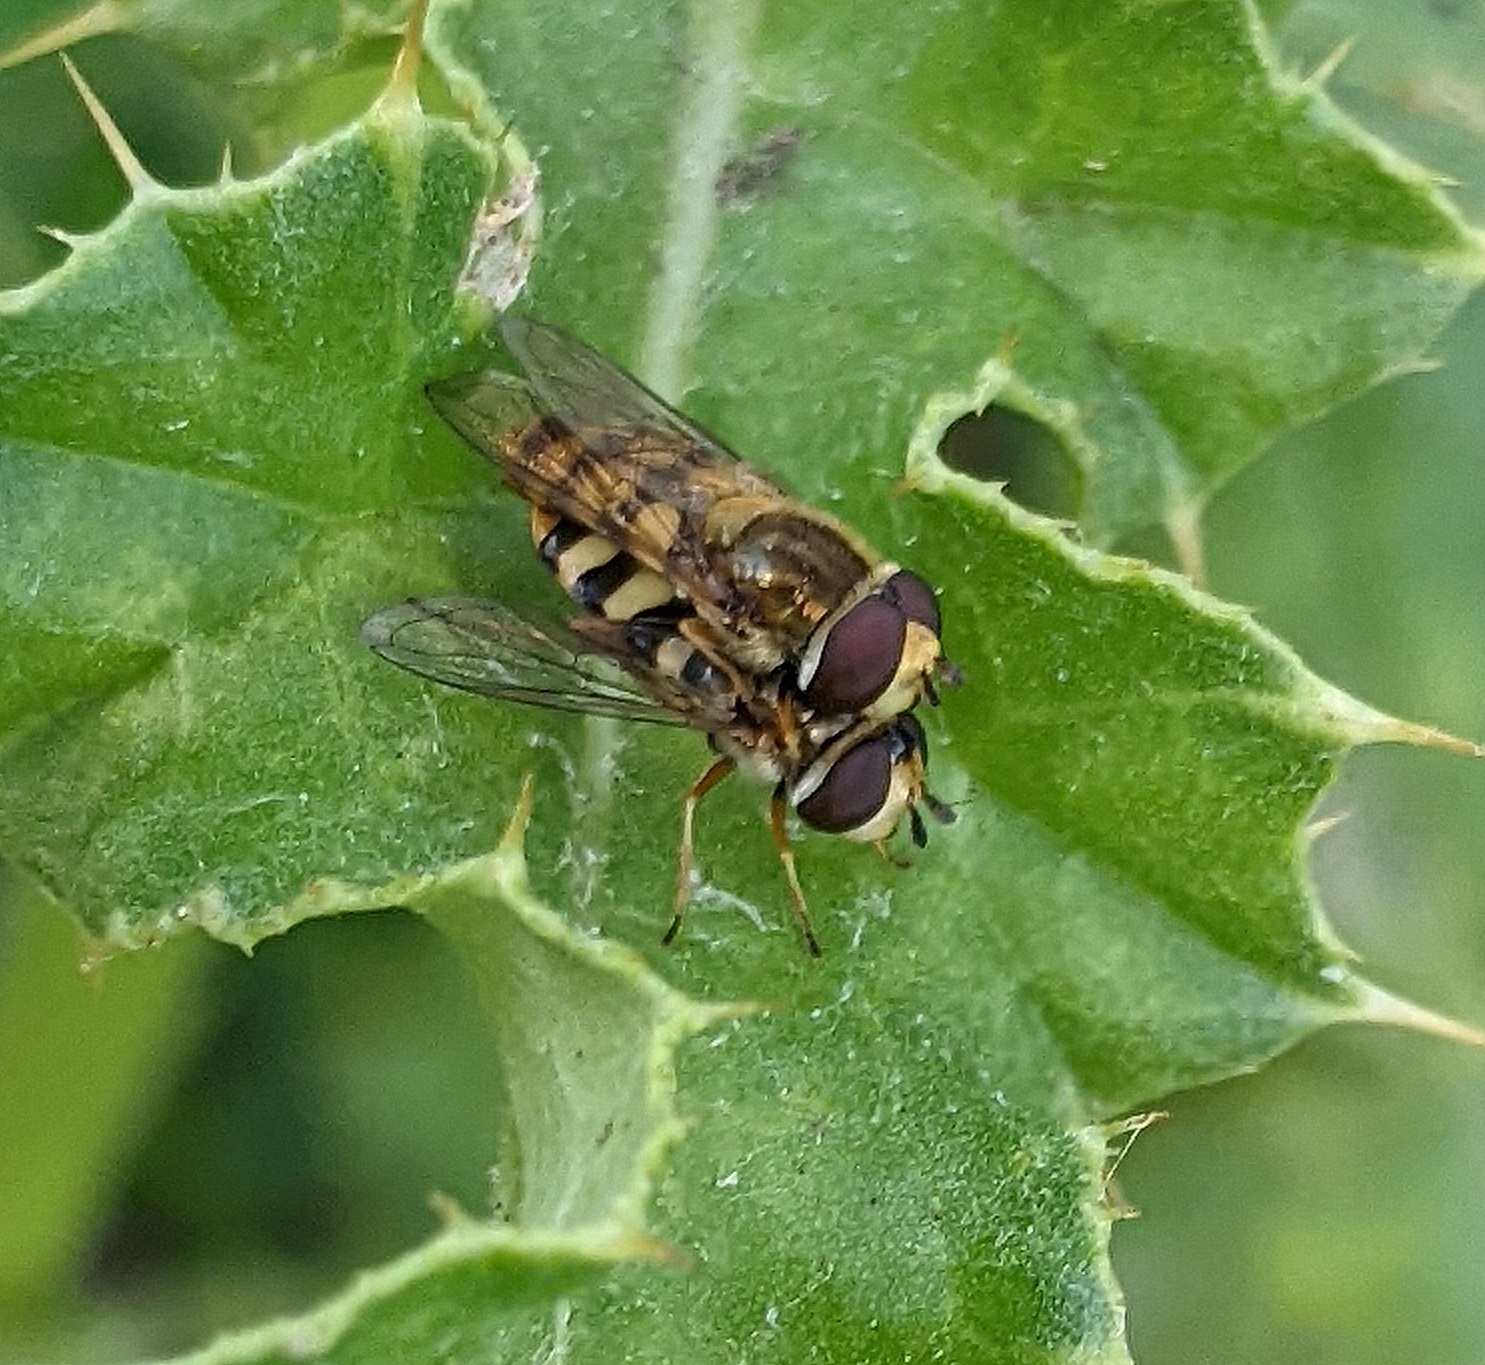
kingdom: Animalia
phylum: Arthropoda
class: Insecta
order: Diptera
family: Syrphidae
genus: Eupeodes
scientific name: Eupeodes corollae
